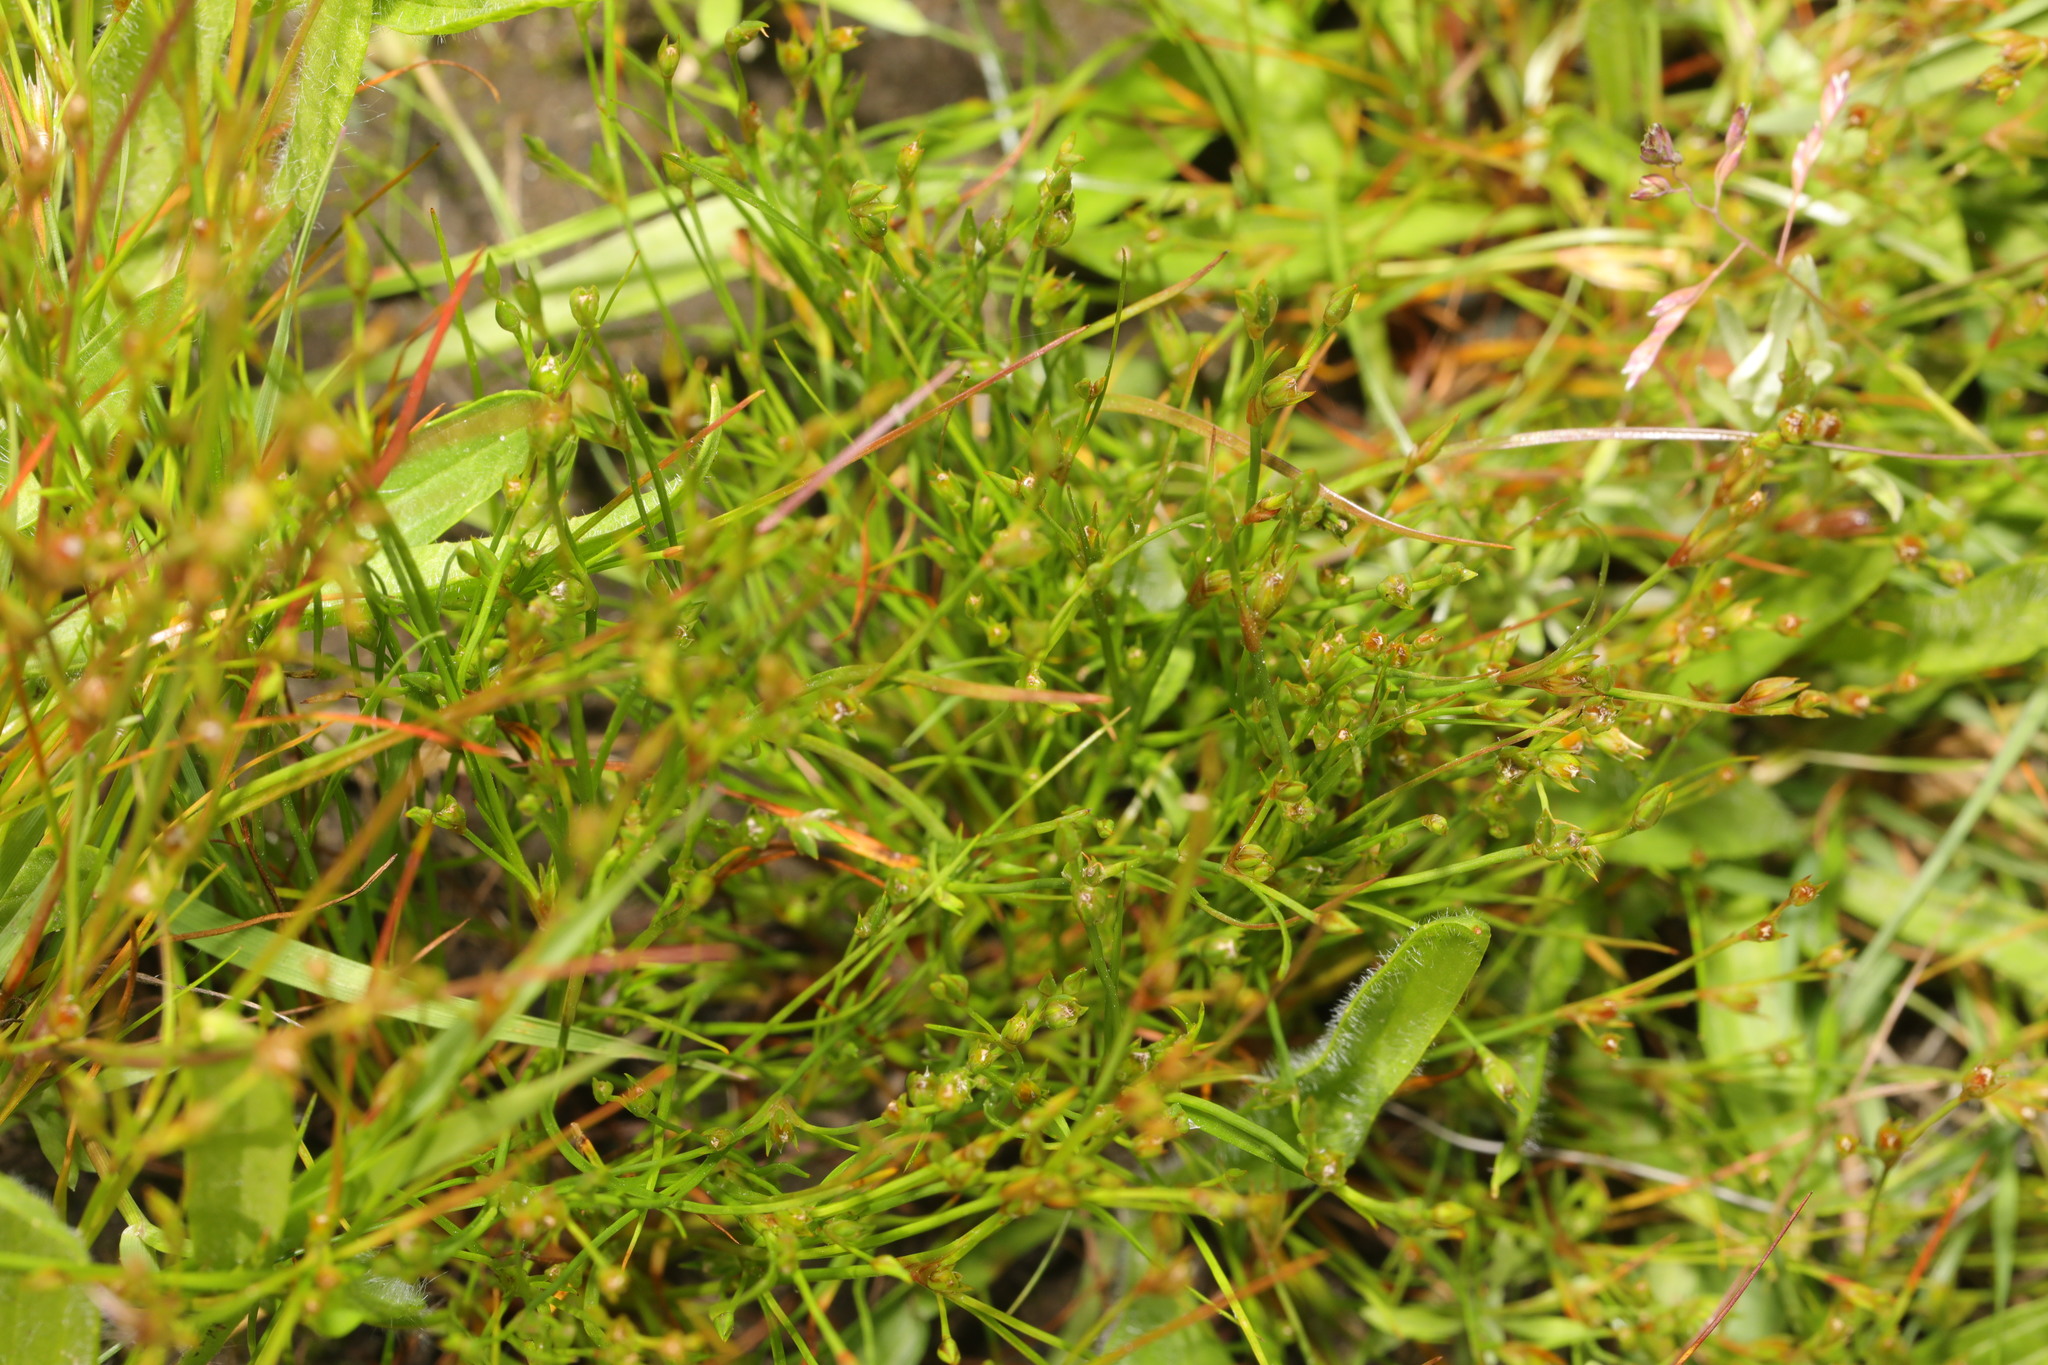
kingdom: Plantae
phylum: Tracheophyta
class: Liliopsida
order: Poales
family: Juncaceae
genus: Juncus
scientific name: Juncus bufonius
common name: Toad rush
